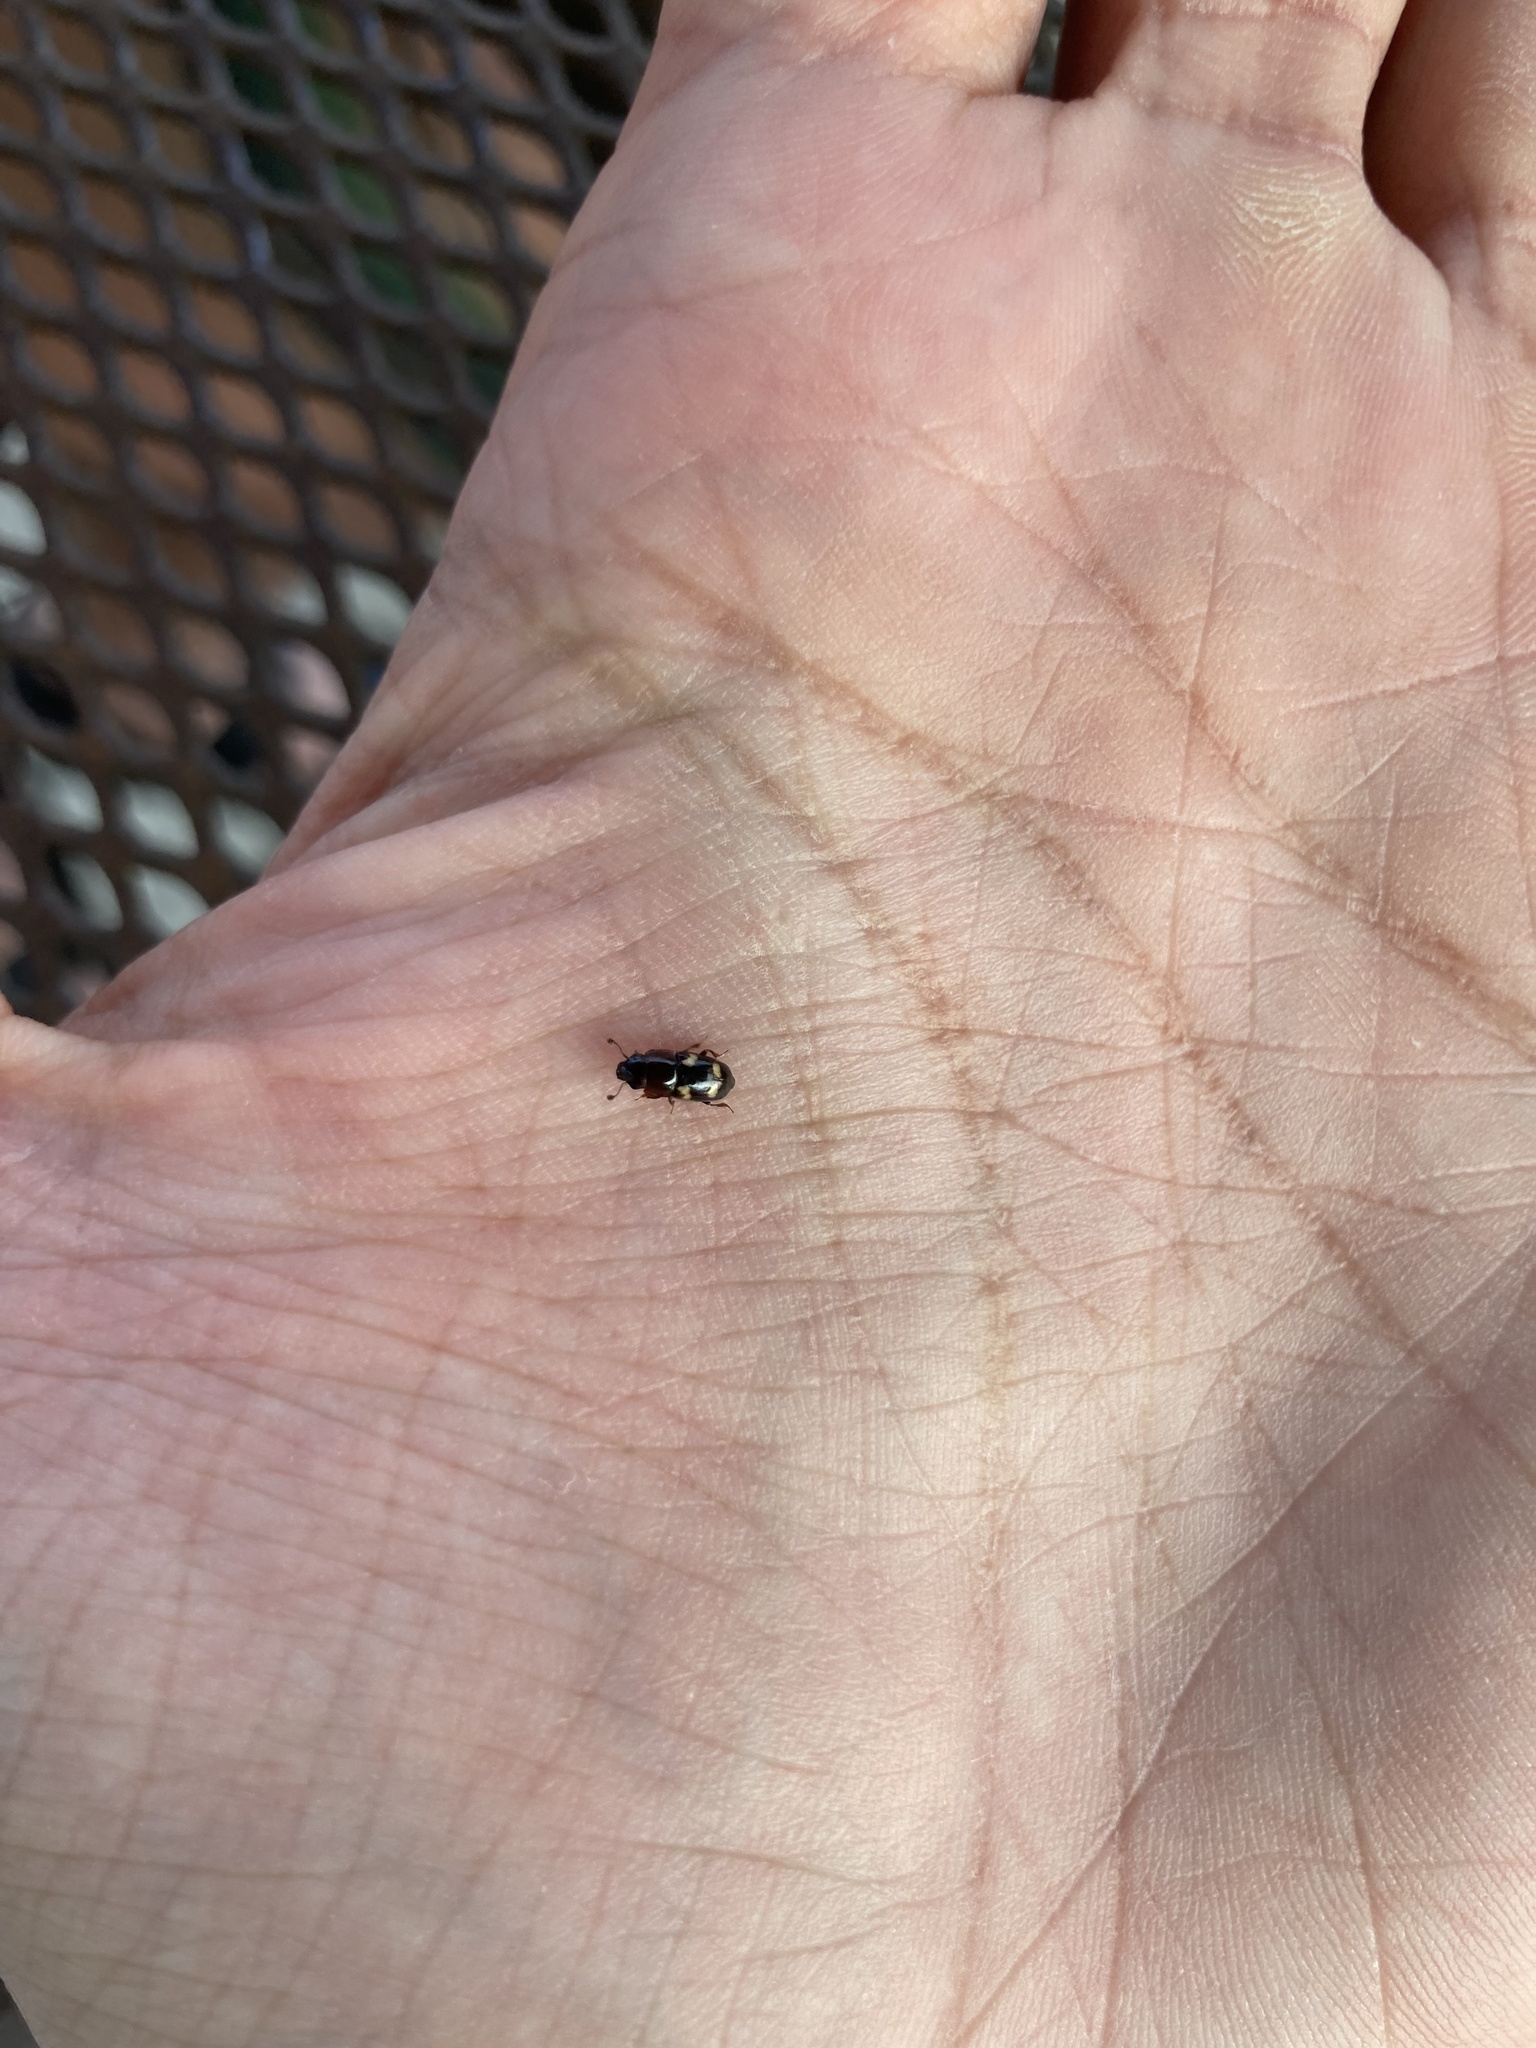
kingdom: Animalia
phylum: Arthropoda
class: Insecta
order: Coleoptera
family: Nitidulidae
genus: Glischrochilus
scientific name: Glischrochilus quadrisignatus
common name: Picnic beetle
